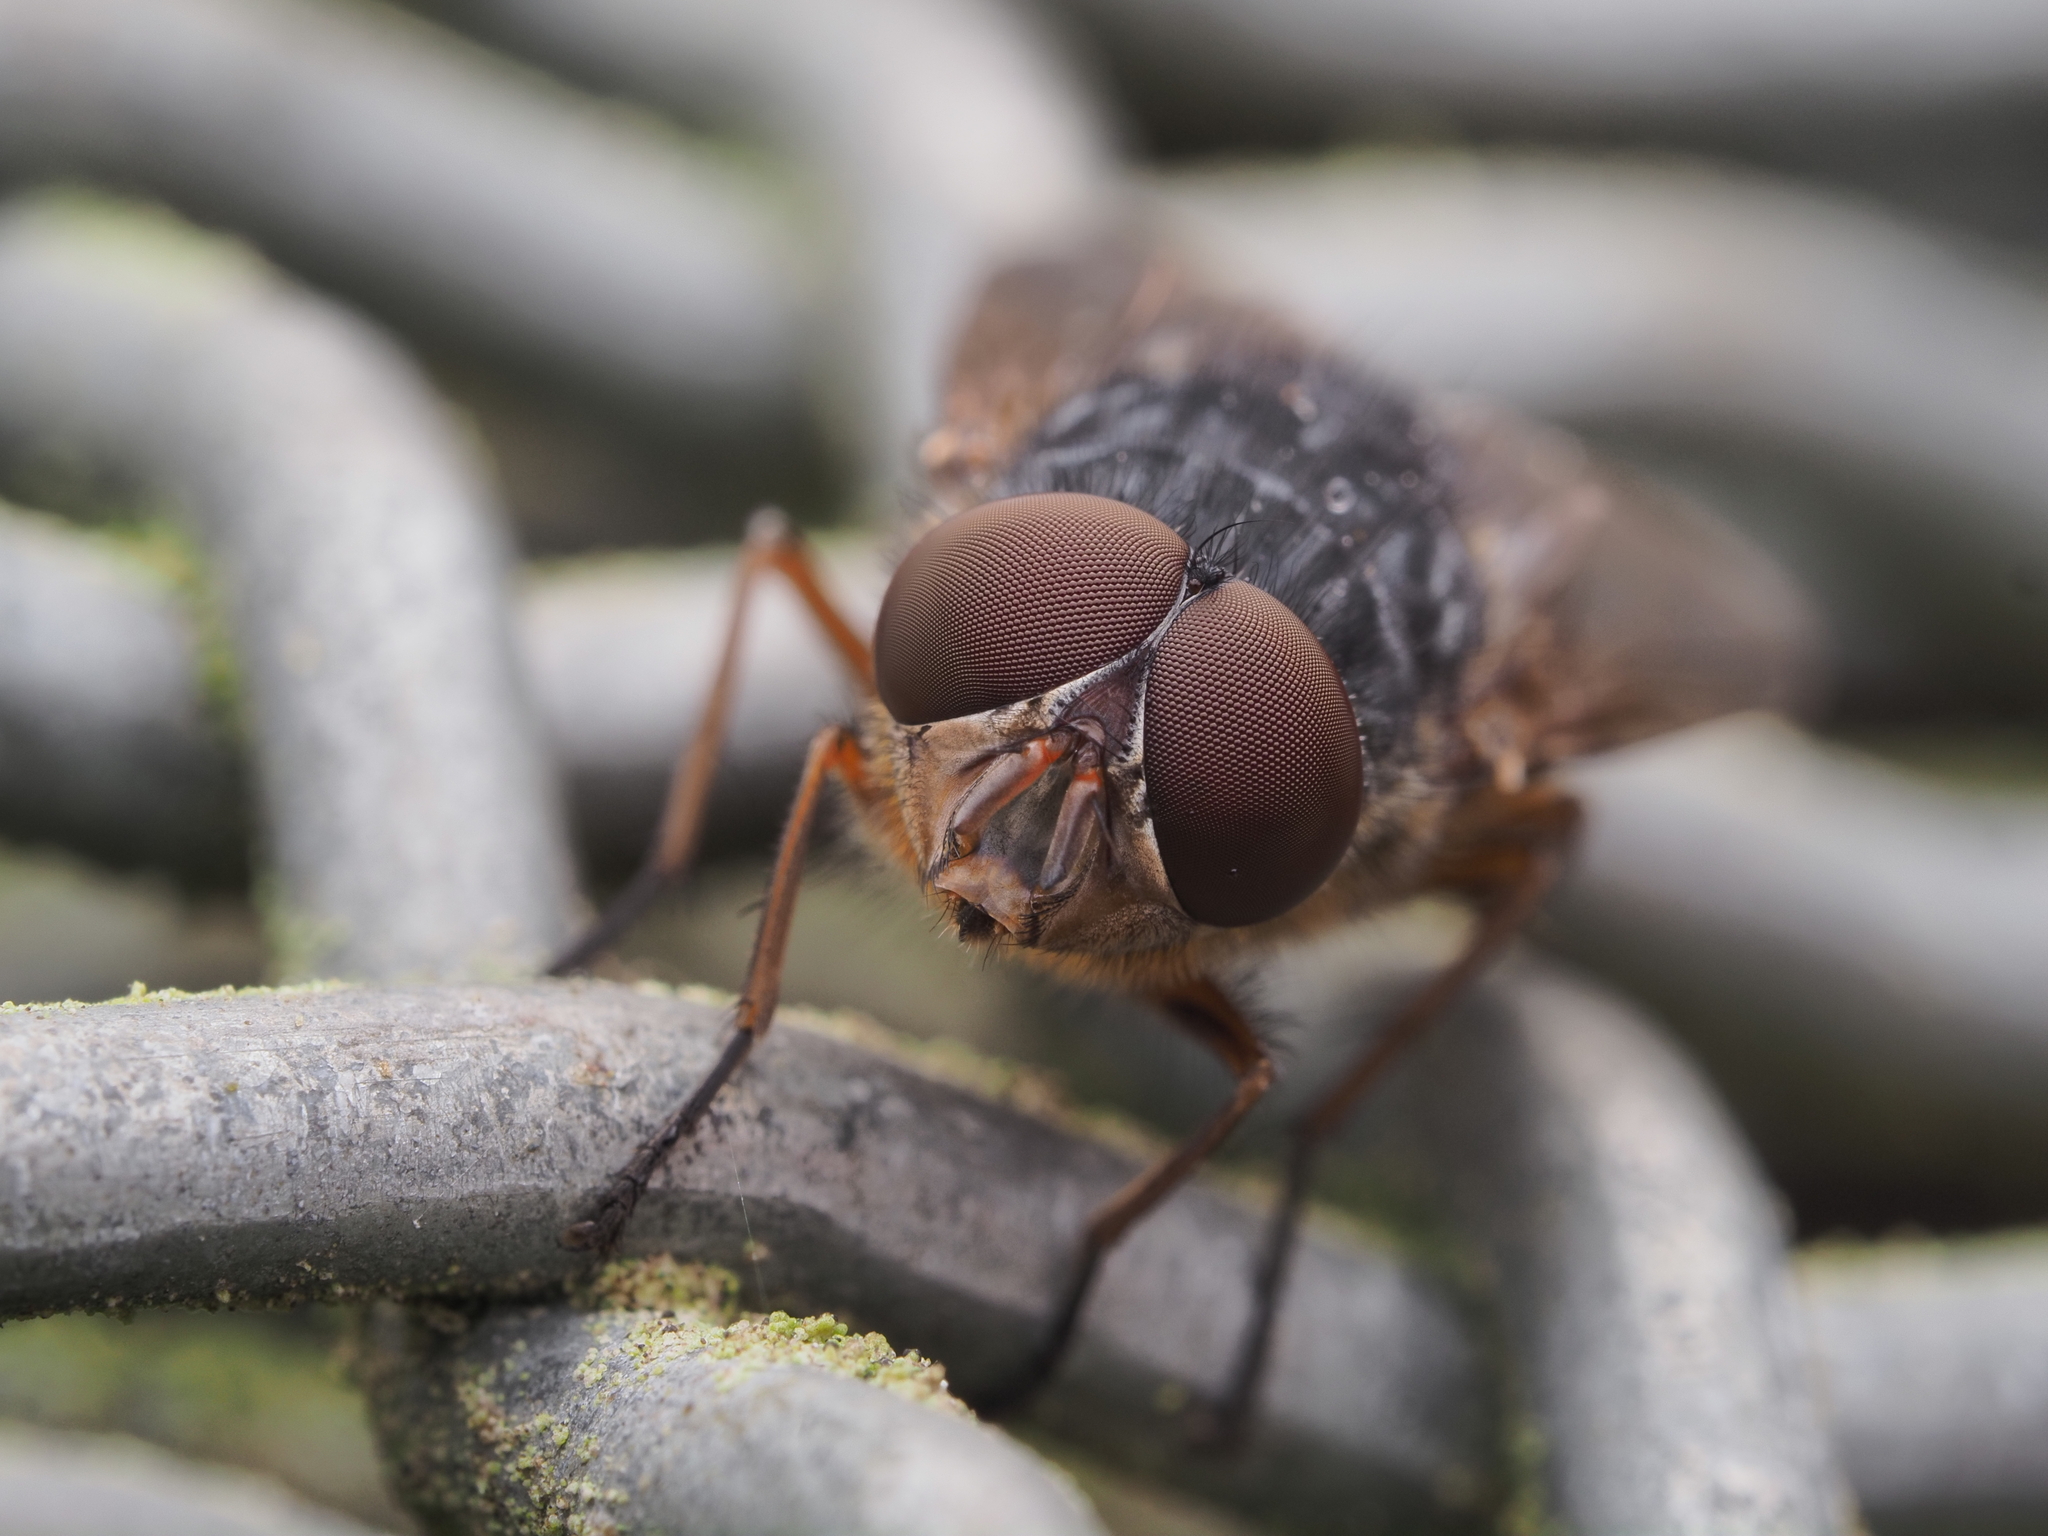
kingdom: Animalia
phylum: Arthropoda
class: Insecta
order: Diptera
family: Calliphoridae
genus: Calliphora
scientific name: Calliphora stygia
